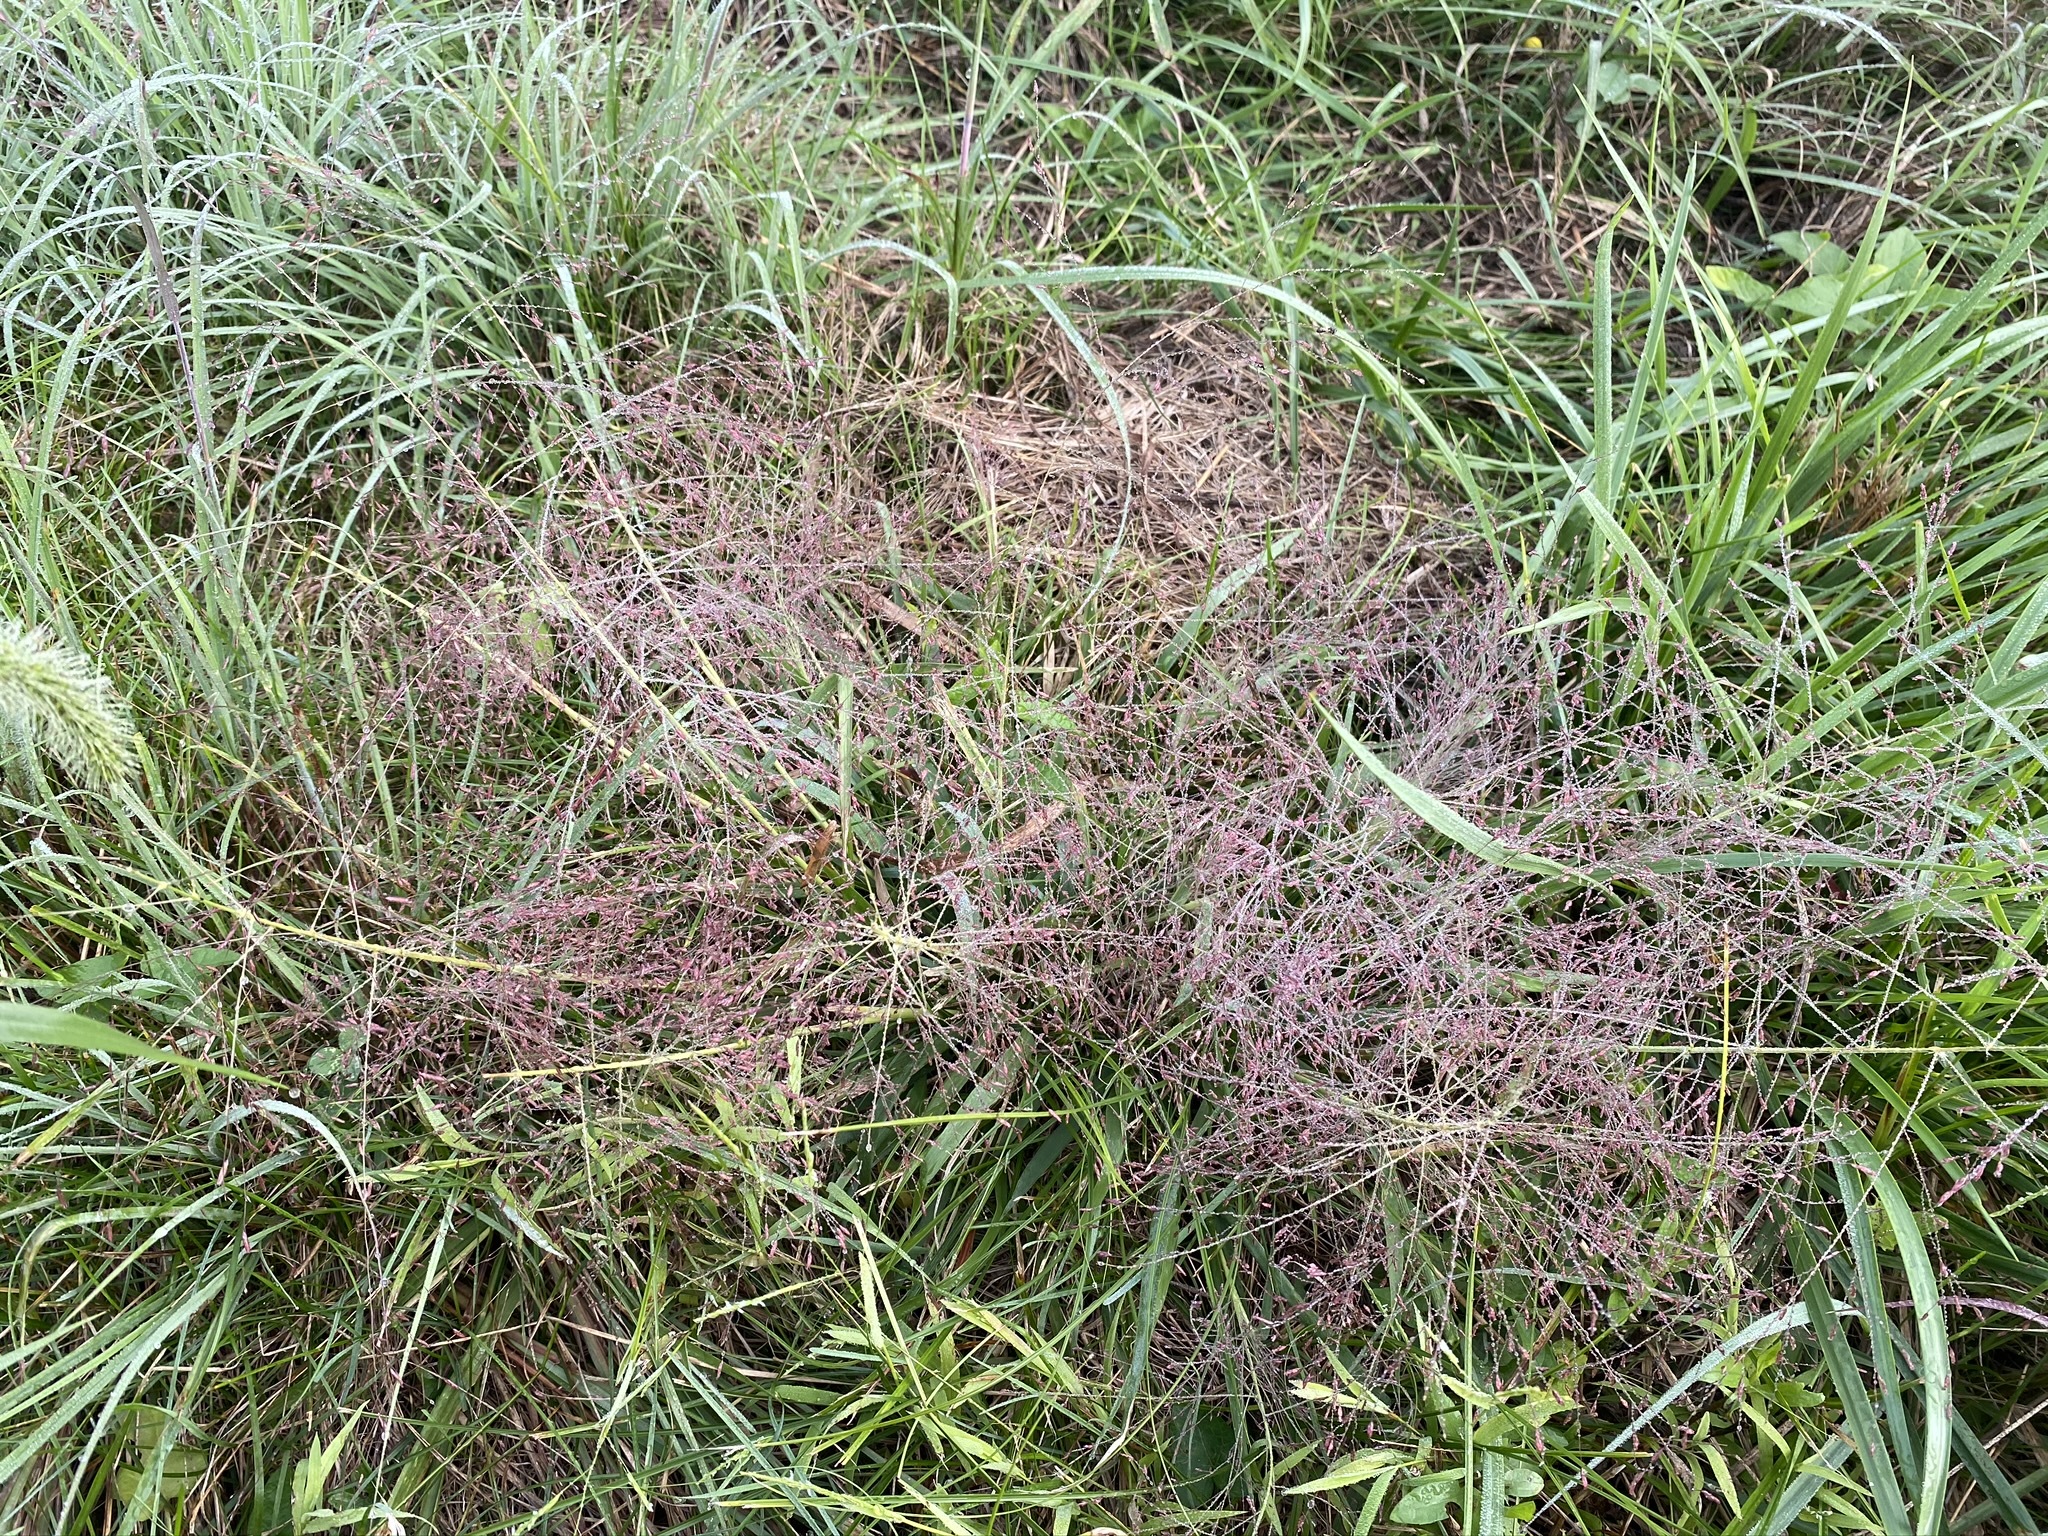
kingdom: Plantae
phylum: Tracheophyta
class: Liliopsida
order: Poales
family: Poaceae
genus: Eragrostis
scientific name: Eragrostis spectabilis
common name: Petticoat-climber
